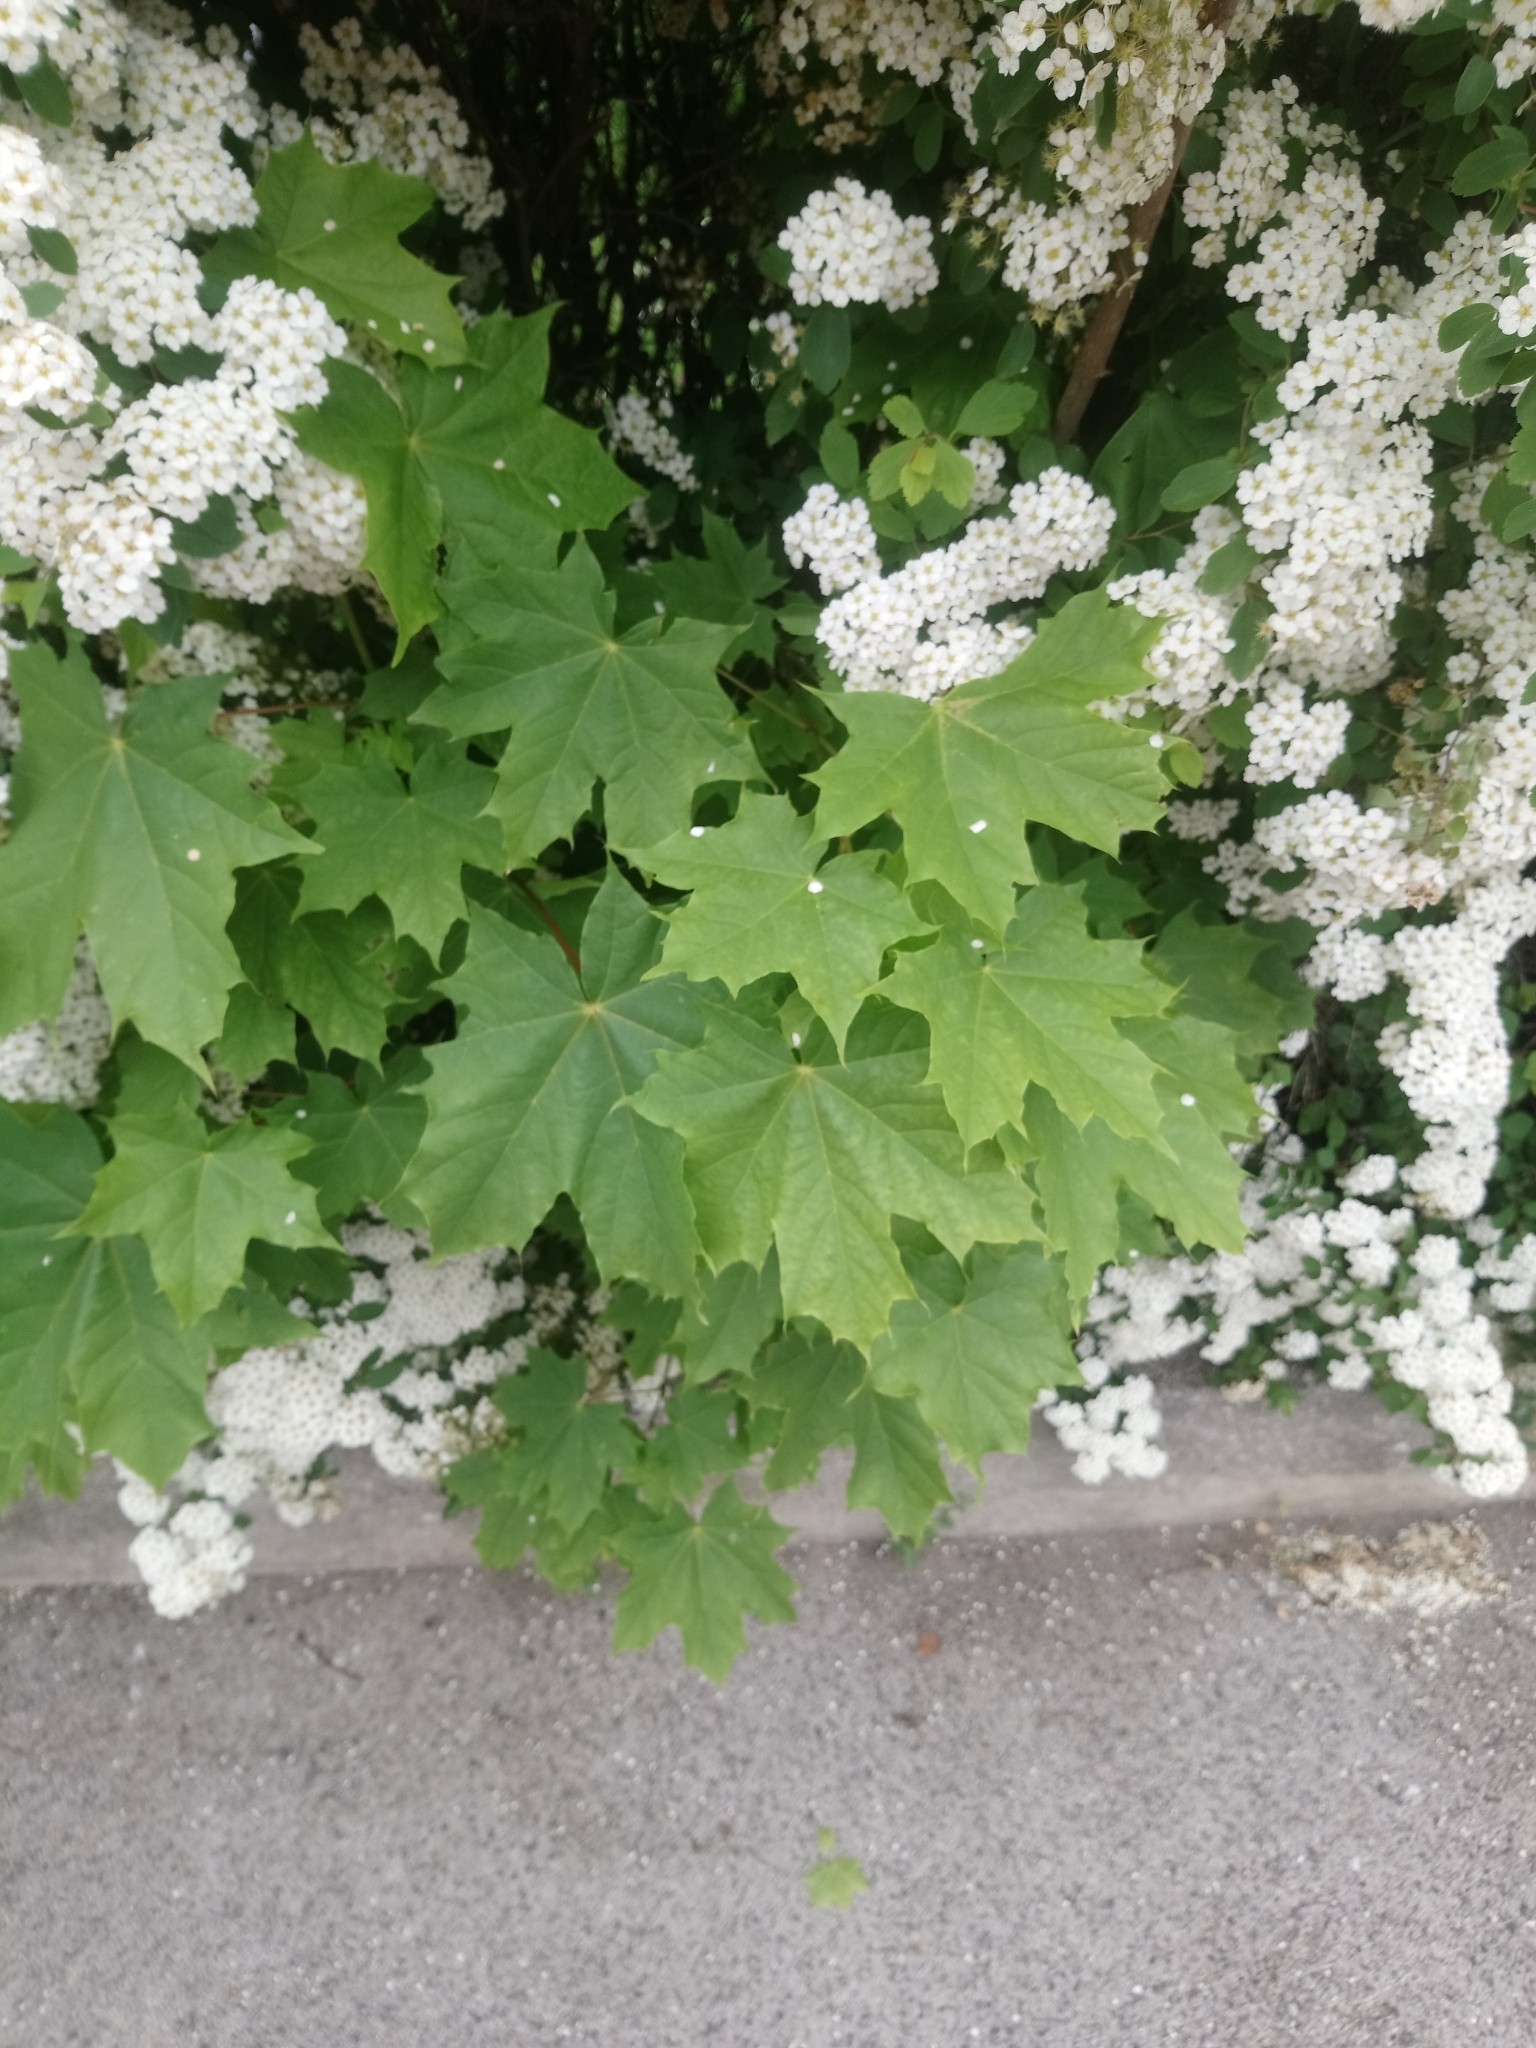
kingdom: Plantae
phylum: Tracheophyta
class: Magnoliopsida
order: Sapindales
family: Sapindaceae
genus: Acer
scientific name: Acer platanoides
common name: Norway maple
